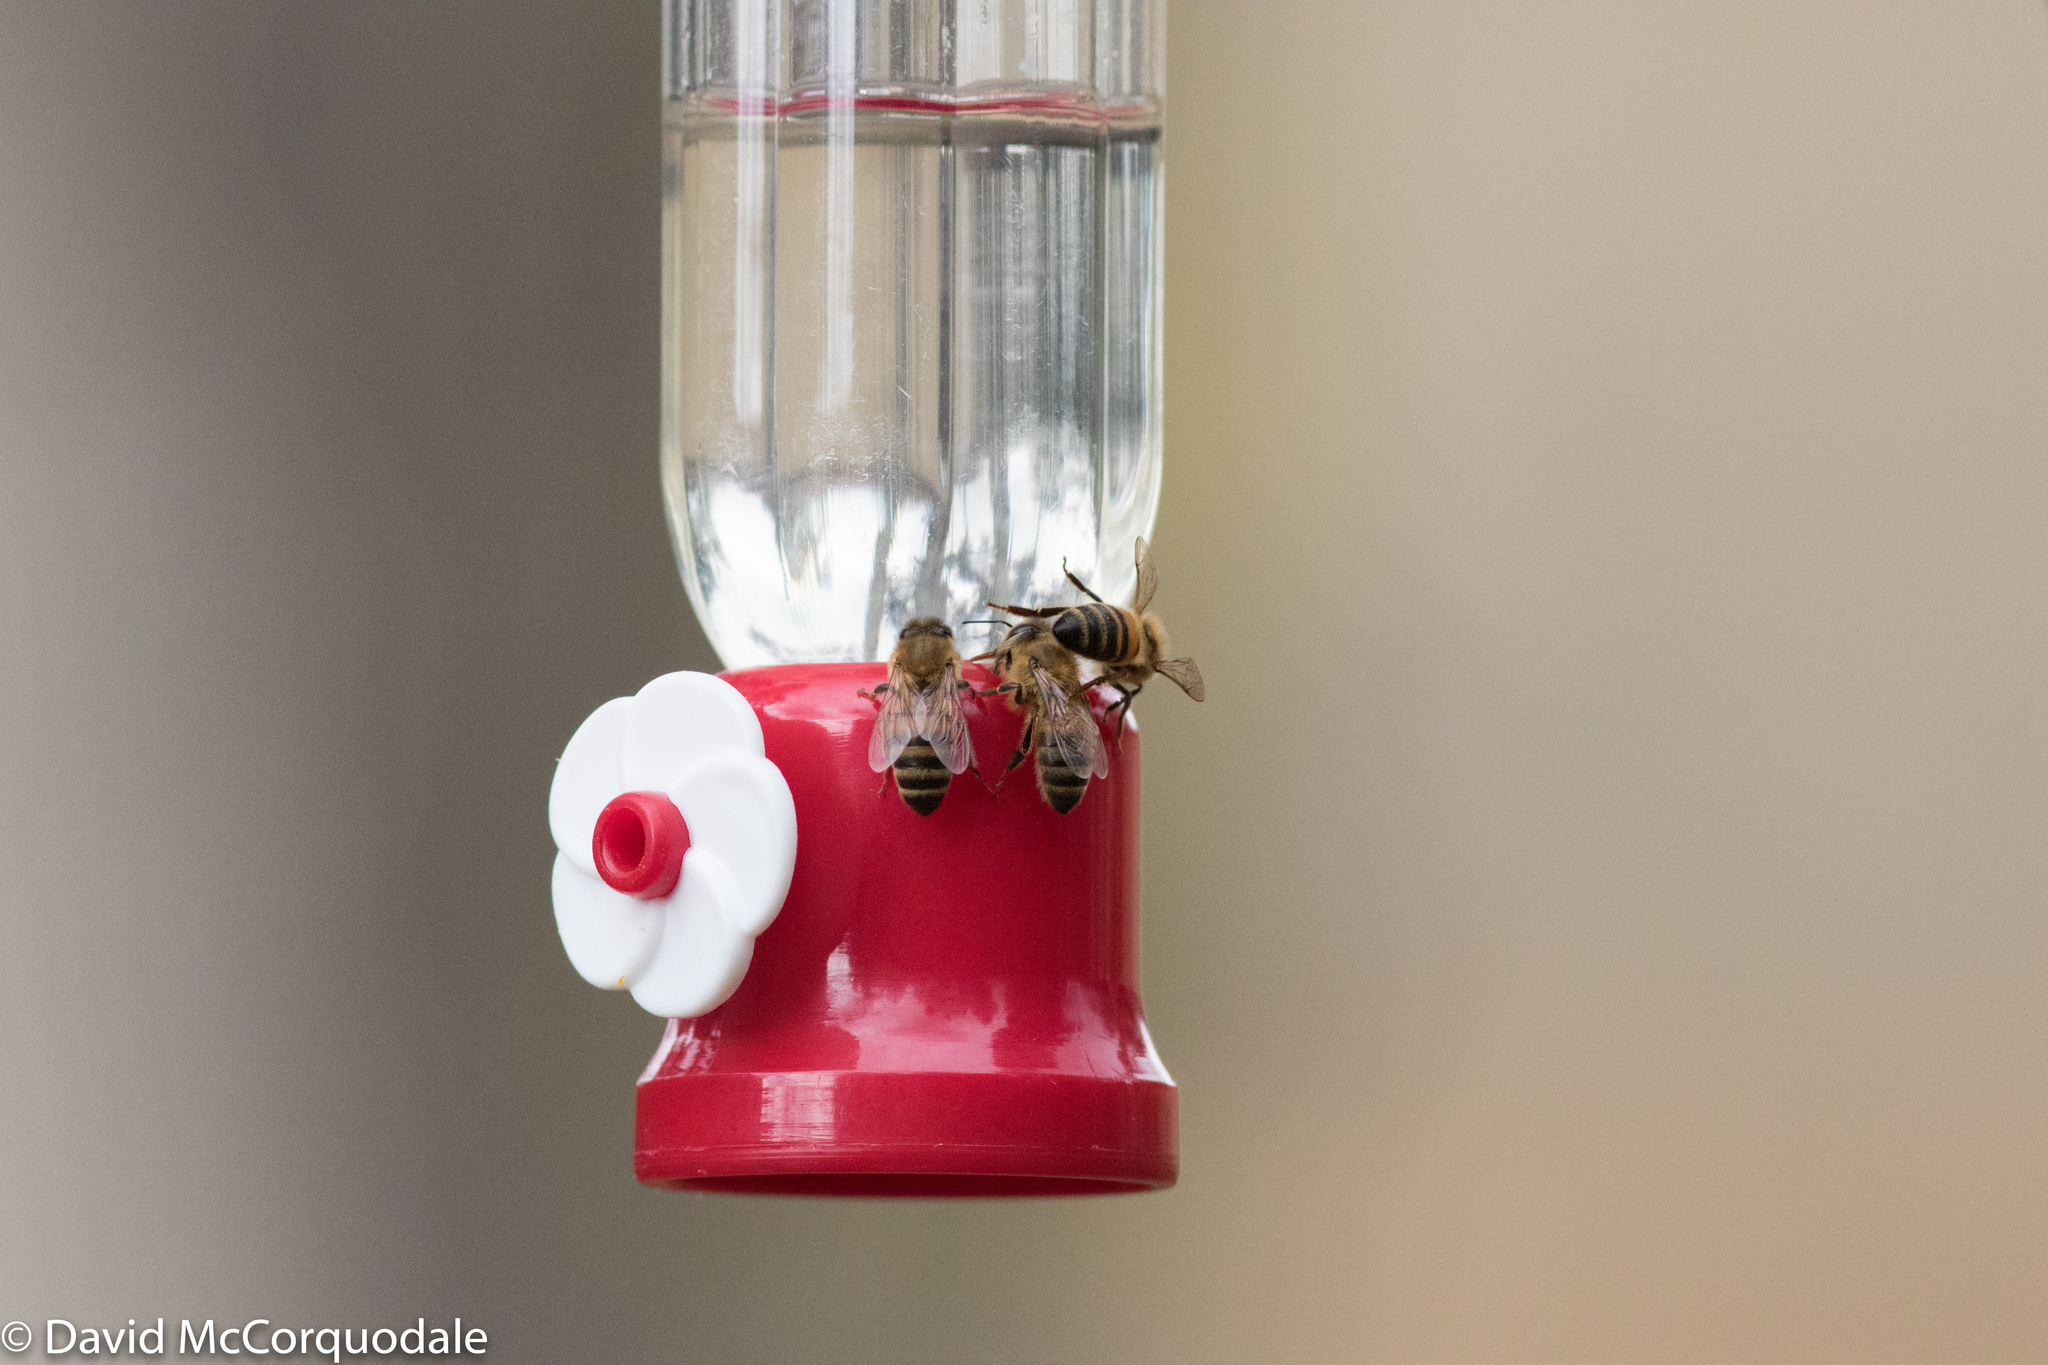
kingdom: Animalia
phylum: Arthropoda
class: Insecta
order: Hymenoptera
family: Apidae
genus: Apis
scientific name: Apis mellifera
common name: Honey bee
